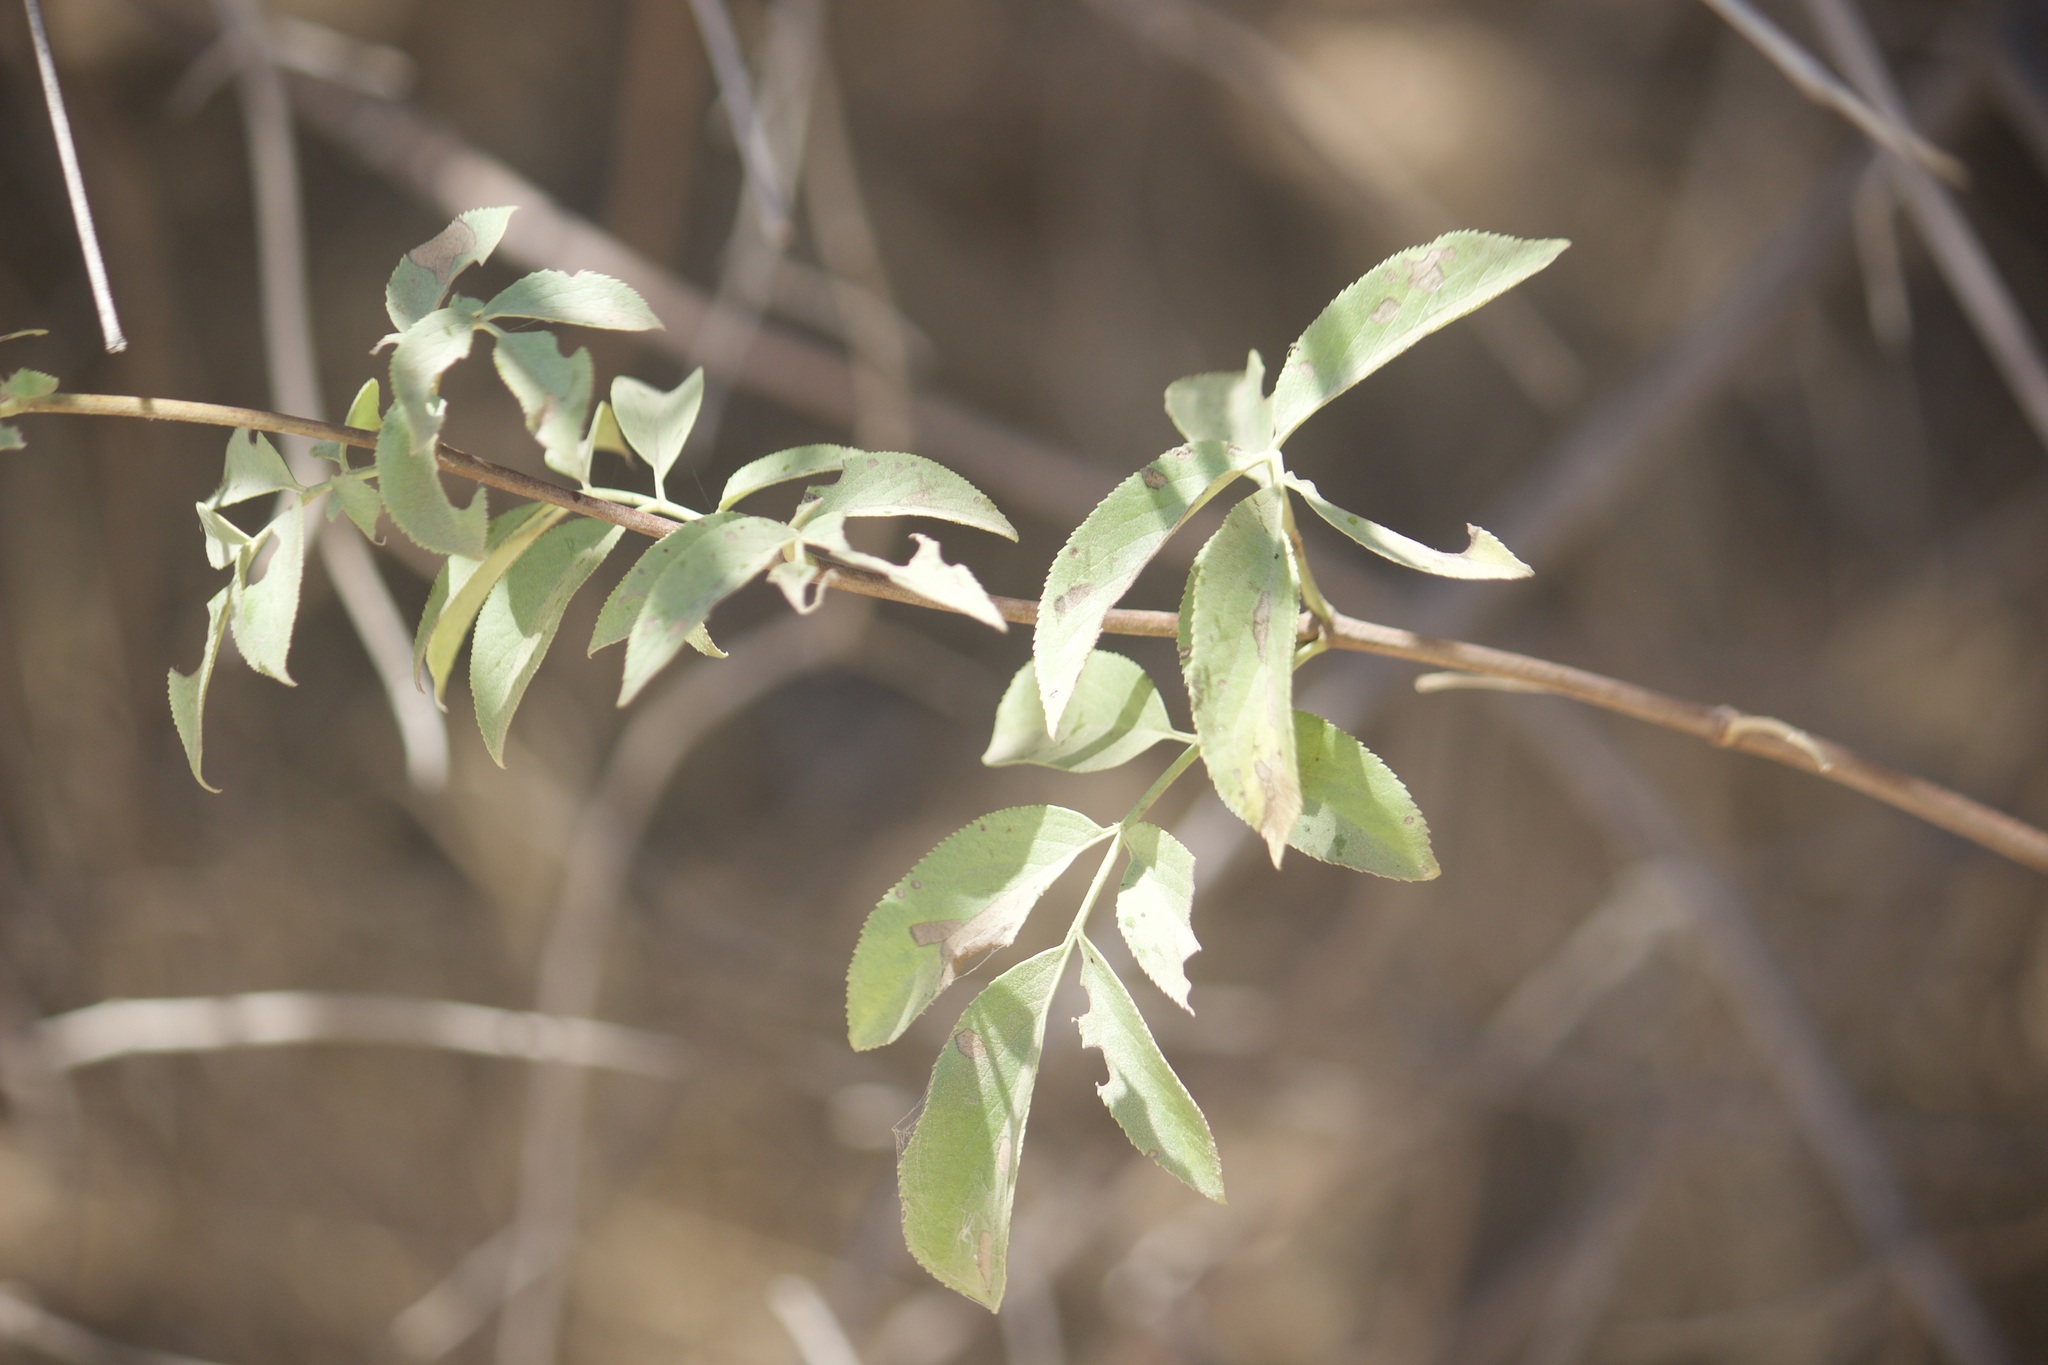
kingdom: Plantae
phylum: Tracheophyta
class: Magnoliopsida
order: Dipsacales
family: Viburnaceae
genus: Sambucus
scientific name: Sambucus cerulea
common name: Blue elder
